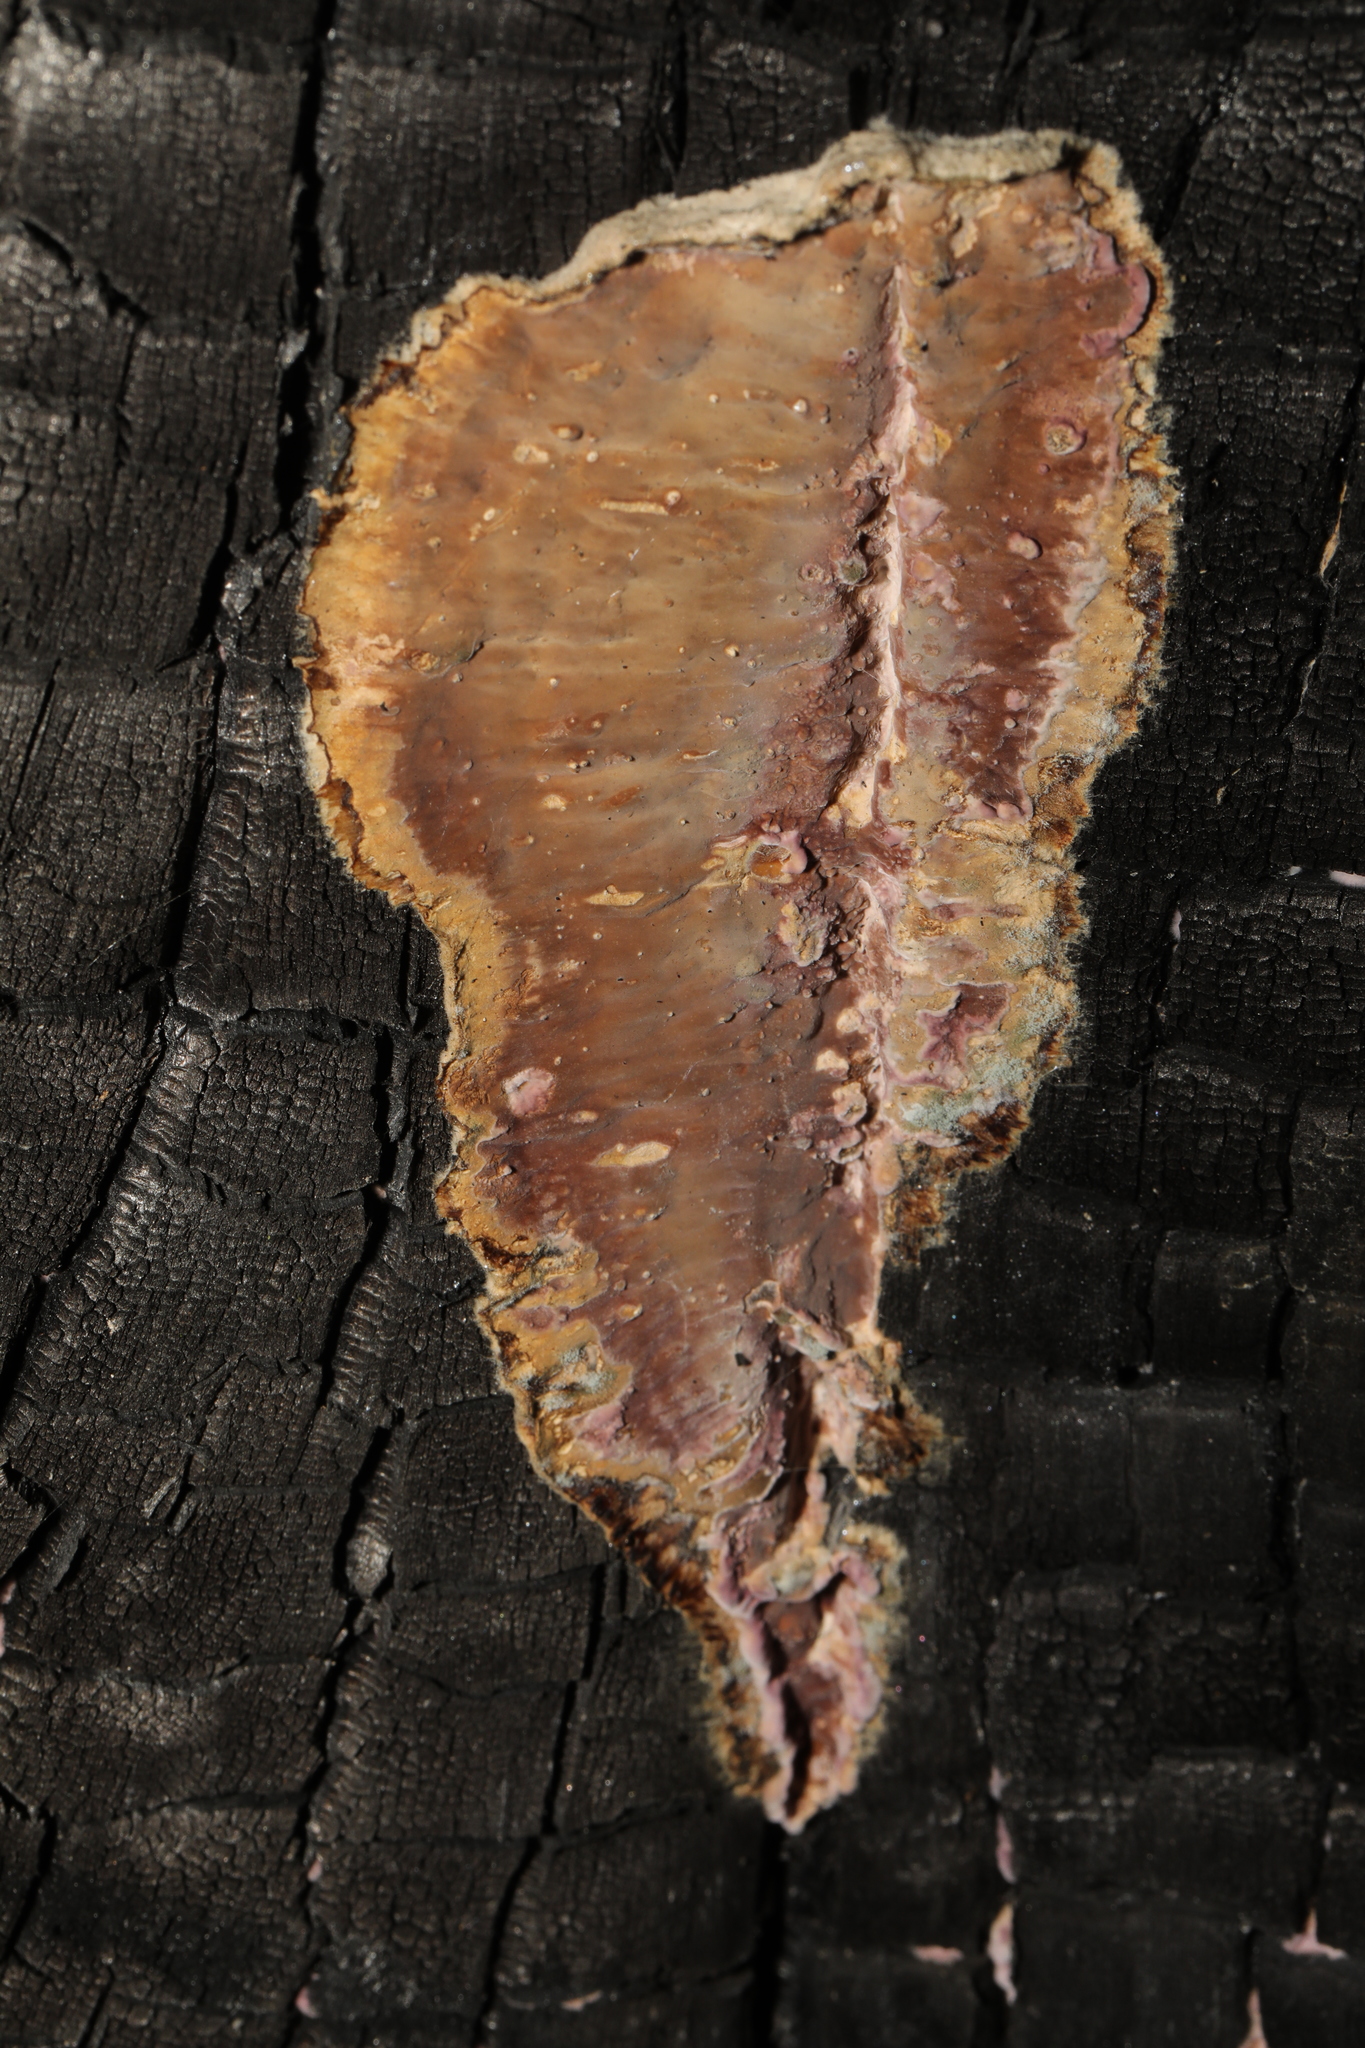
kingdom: Fungi
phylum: Basidiomycota
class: Agaricomycetes
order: Agaricales
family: Cyphellaceae
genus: Chondrostereum
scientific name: Chondrostereum purpureum
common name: Silver leaf disease
